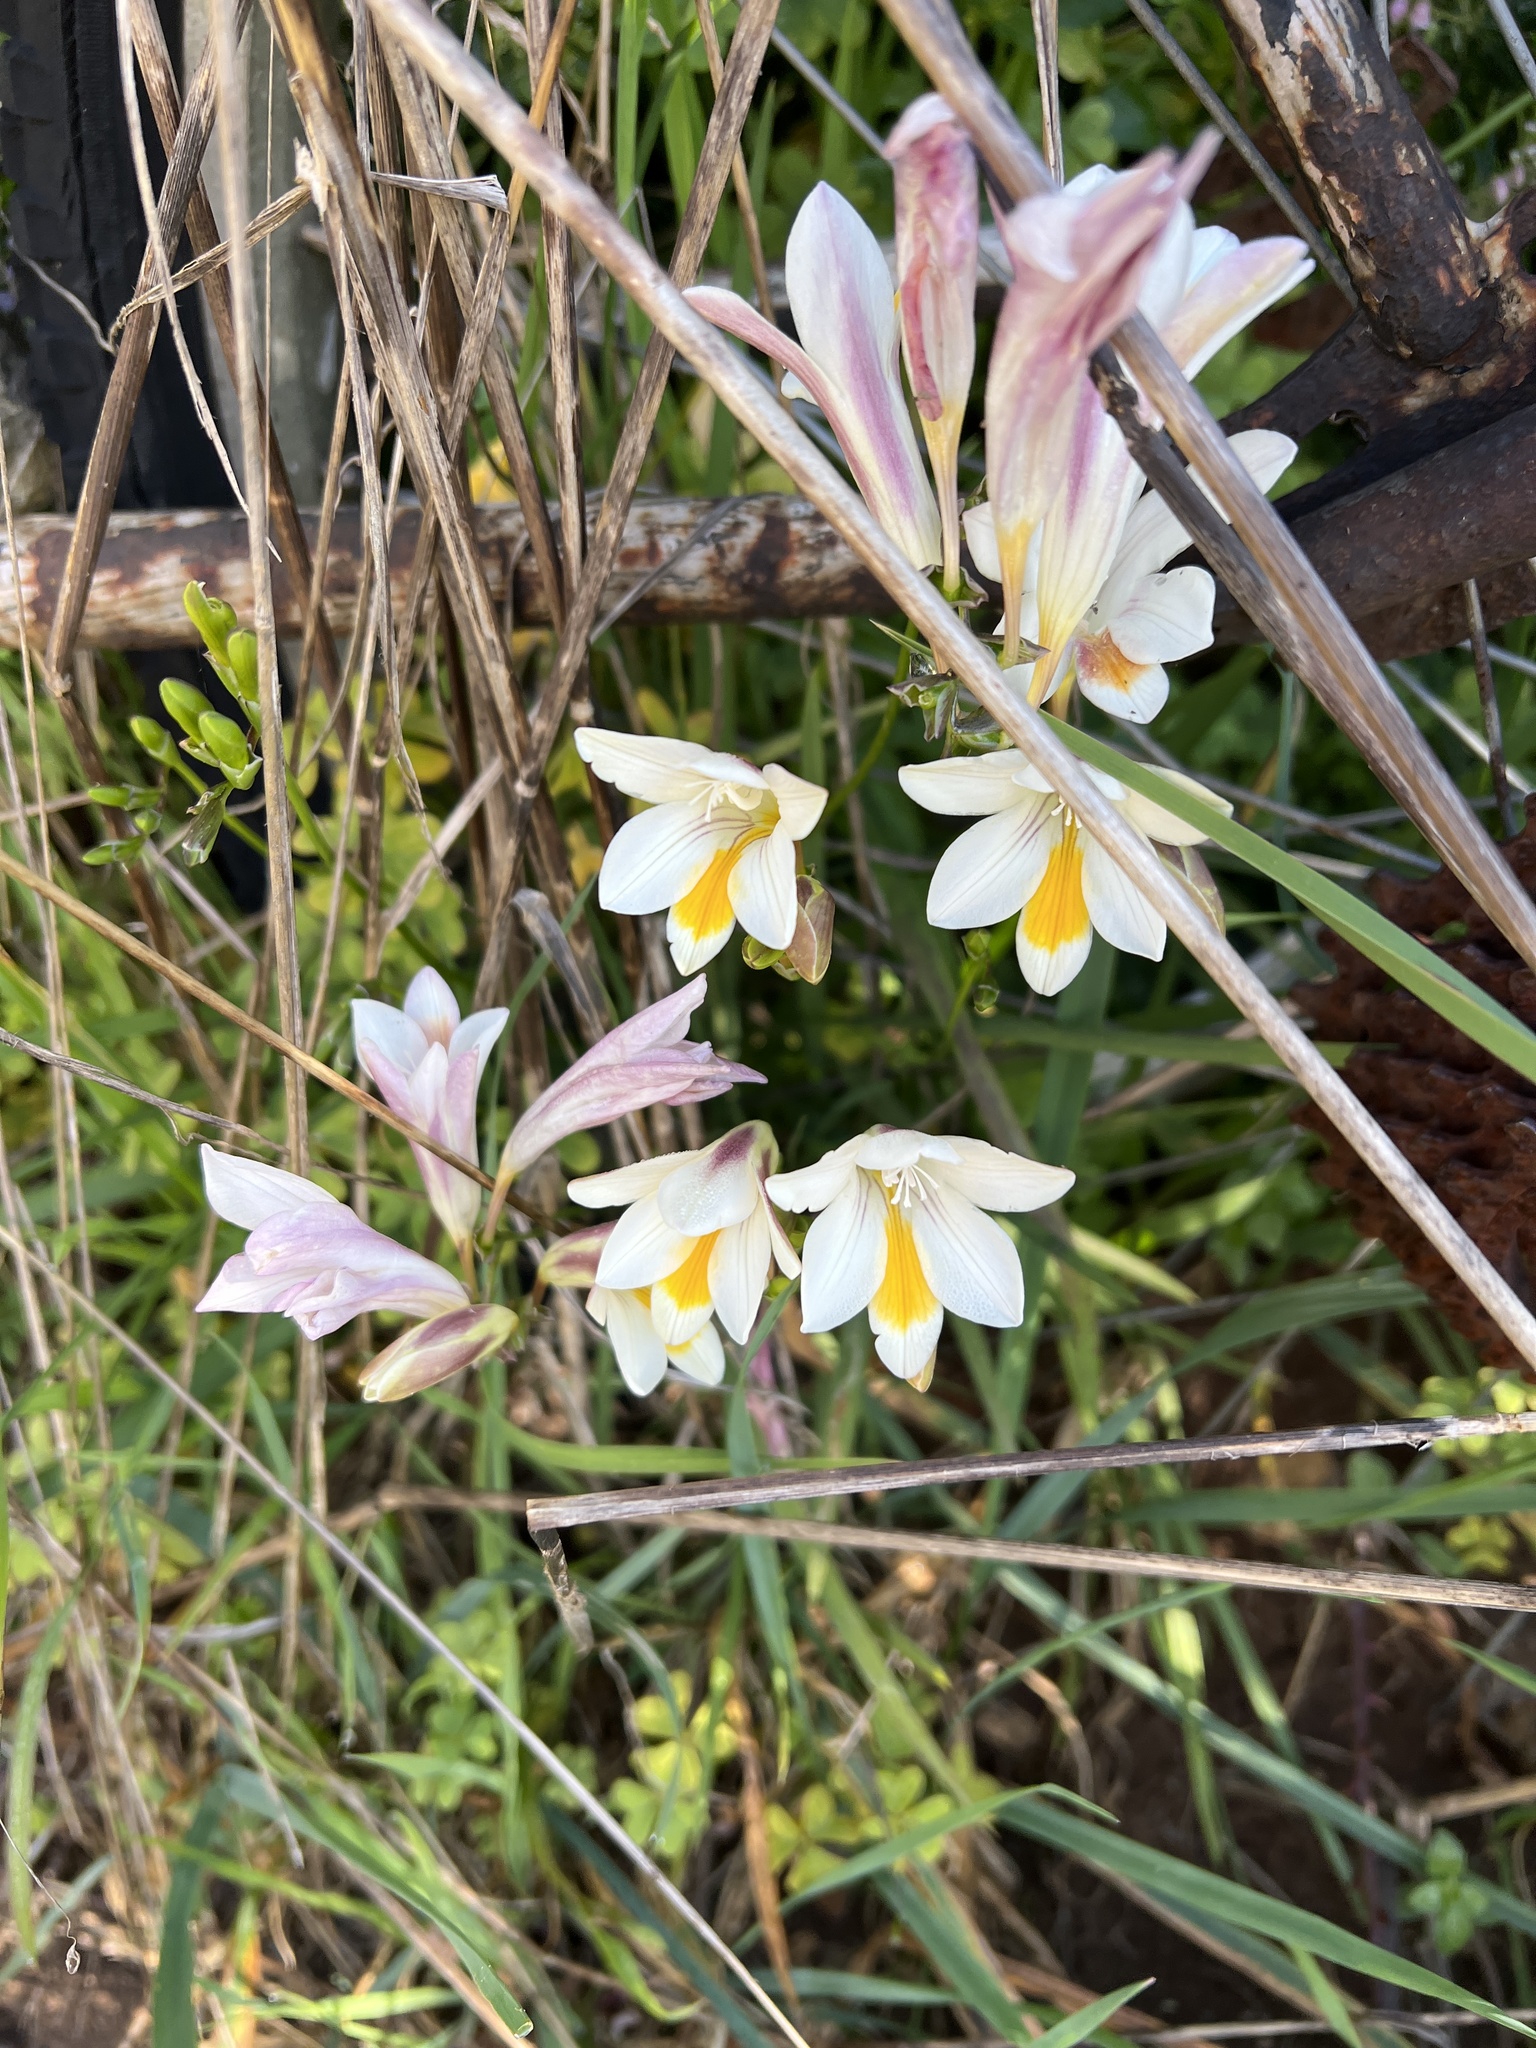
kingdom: Plantae
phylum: Tracheophyta
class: Liliopsida
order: Asparagales
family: Iridaceae
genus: Freesia
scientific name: Freesia leichtlinii
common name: Freesia
